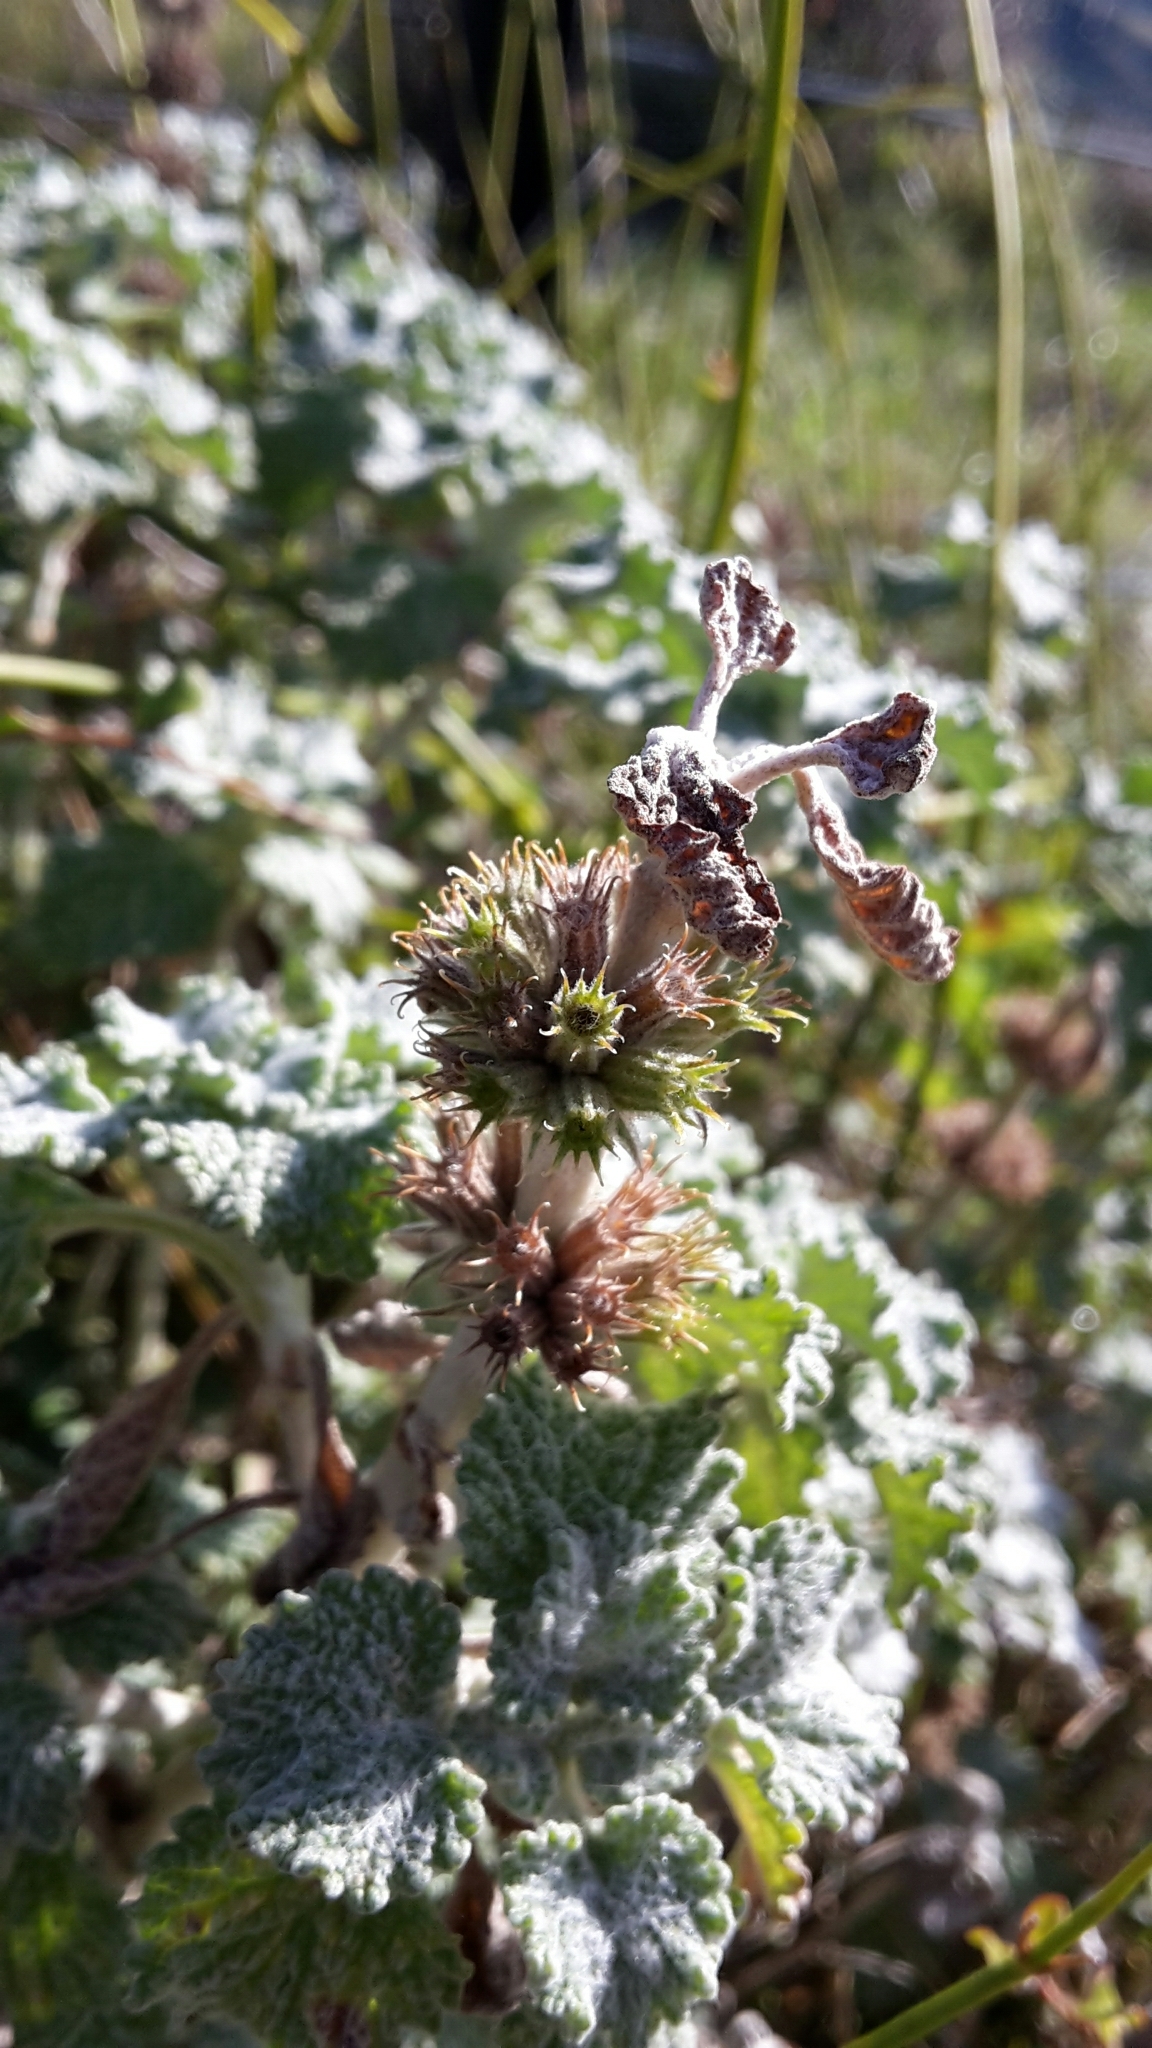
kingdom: Plantae
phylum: Tracheophyta
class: Magnoliopsida
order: Lamiales
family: Lamiaceae
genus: Marrubium
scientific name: Marrubium vulgare
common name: Horehound
